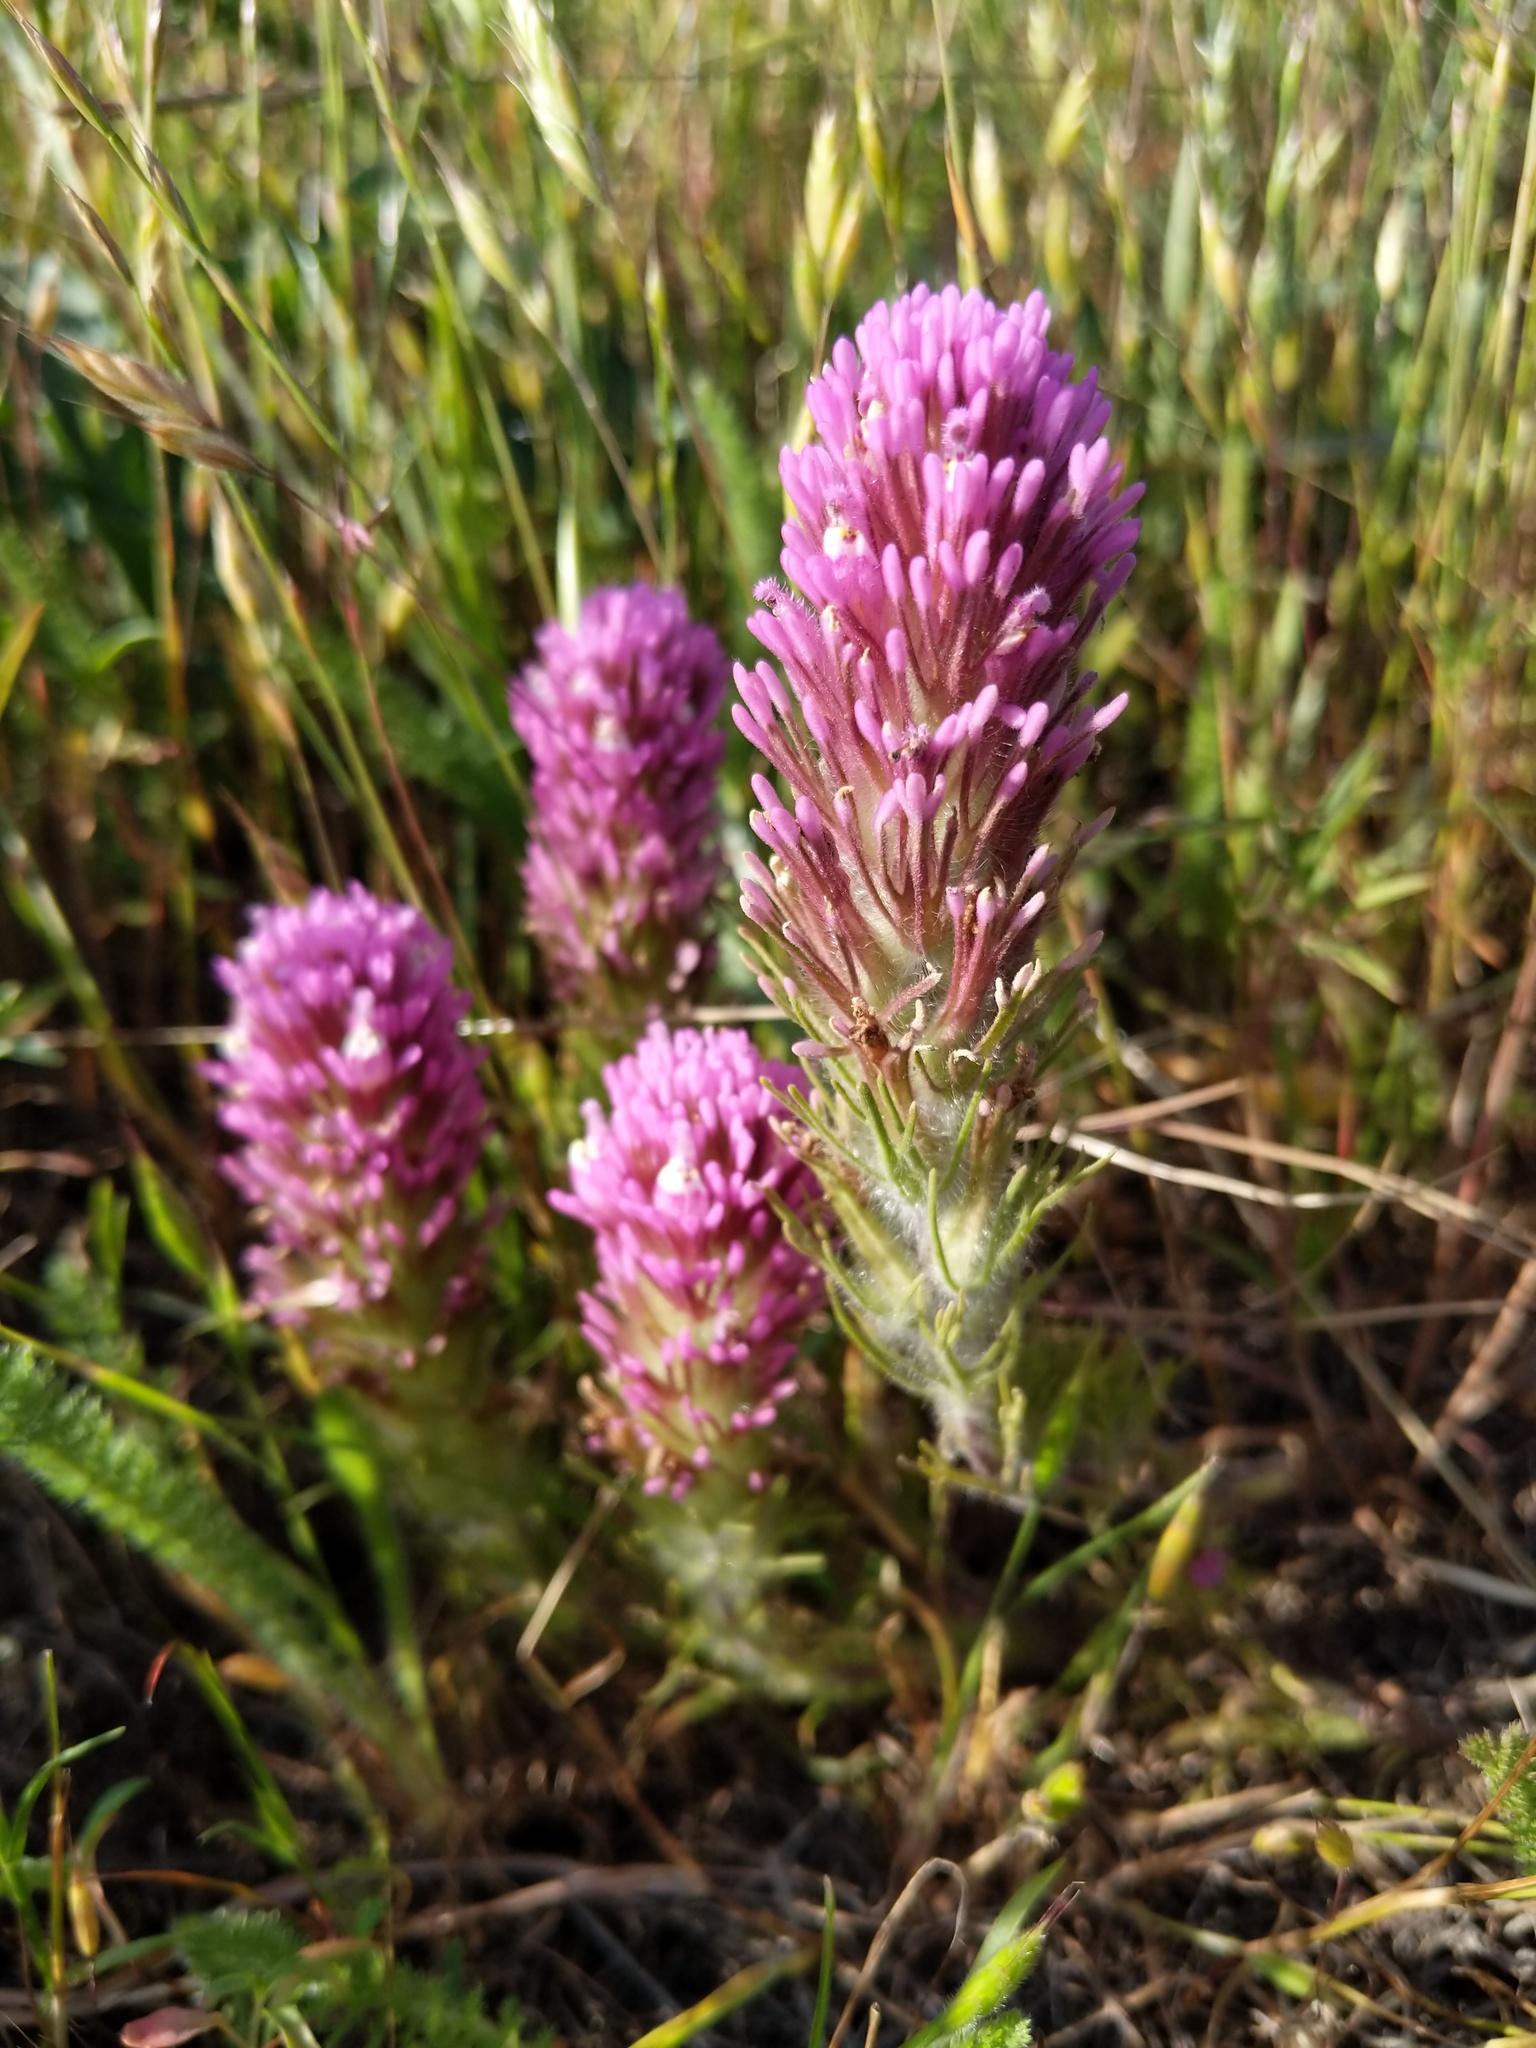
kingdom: Plantae
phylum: Tracheophyta
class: Magnoliopsida
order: Lamiales
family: Orobanchaceae
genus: Castilleja
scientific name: Castilleja exserta
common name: Purple owl-clover
